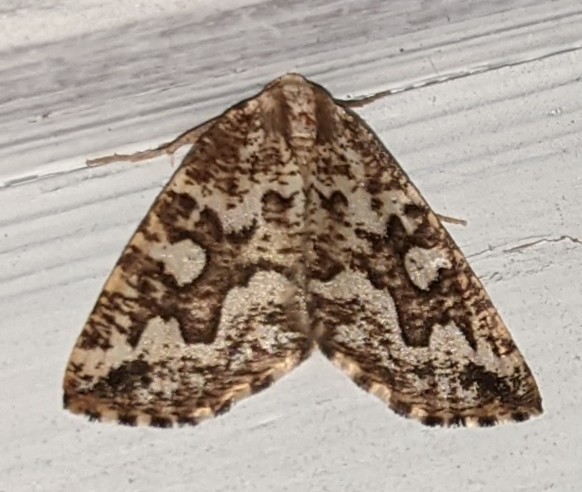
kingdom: Animalia
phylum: Arthropoda
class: Insecta
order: Lepidoptera
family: Geometridae
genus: Caripeta
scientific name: Caripeta divisata
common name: Gray spruce looper
